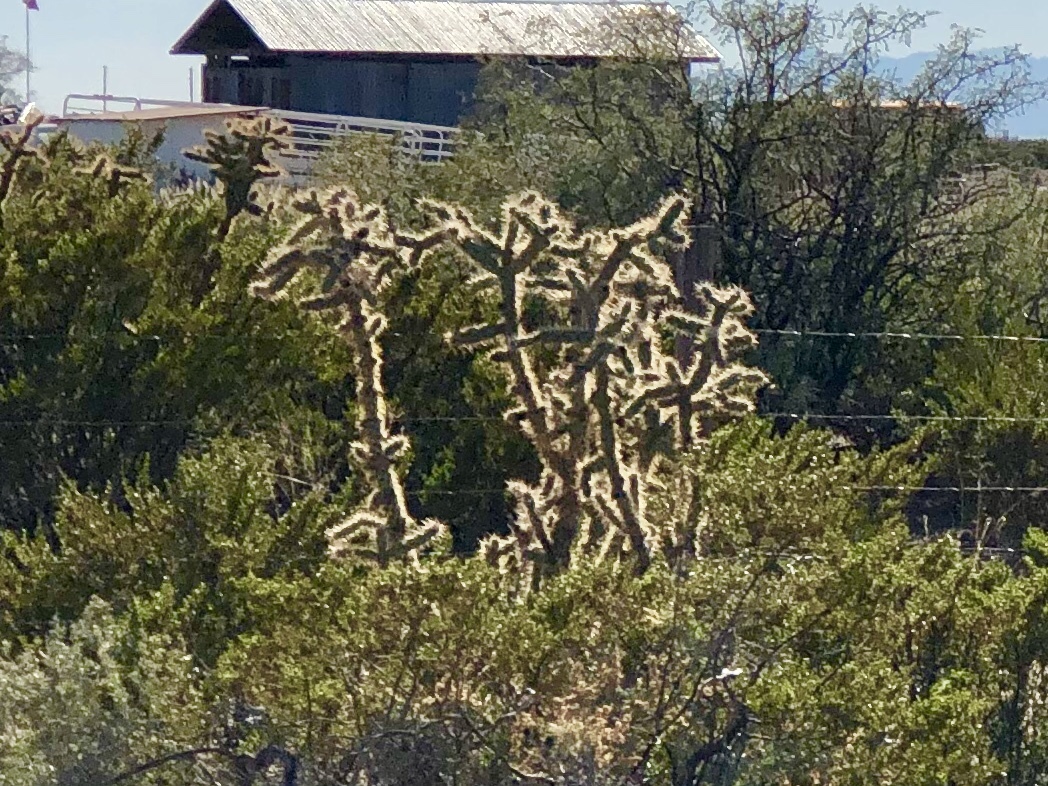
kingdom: Plantae
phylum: Tracheophyta
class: Magnoliopsida
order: Caryophyllales
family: Cactaceae
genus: Cylindropuntia
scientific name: Cylindropuntia imbricata
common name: Candelabrum cactus
